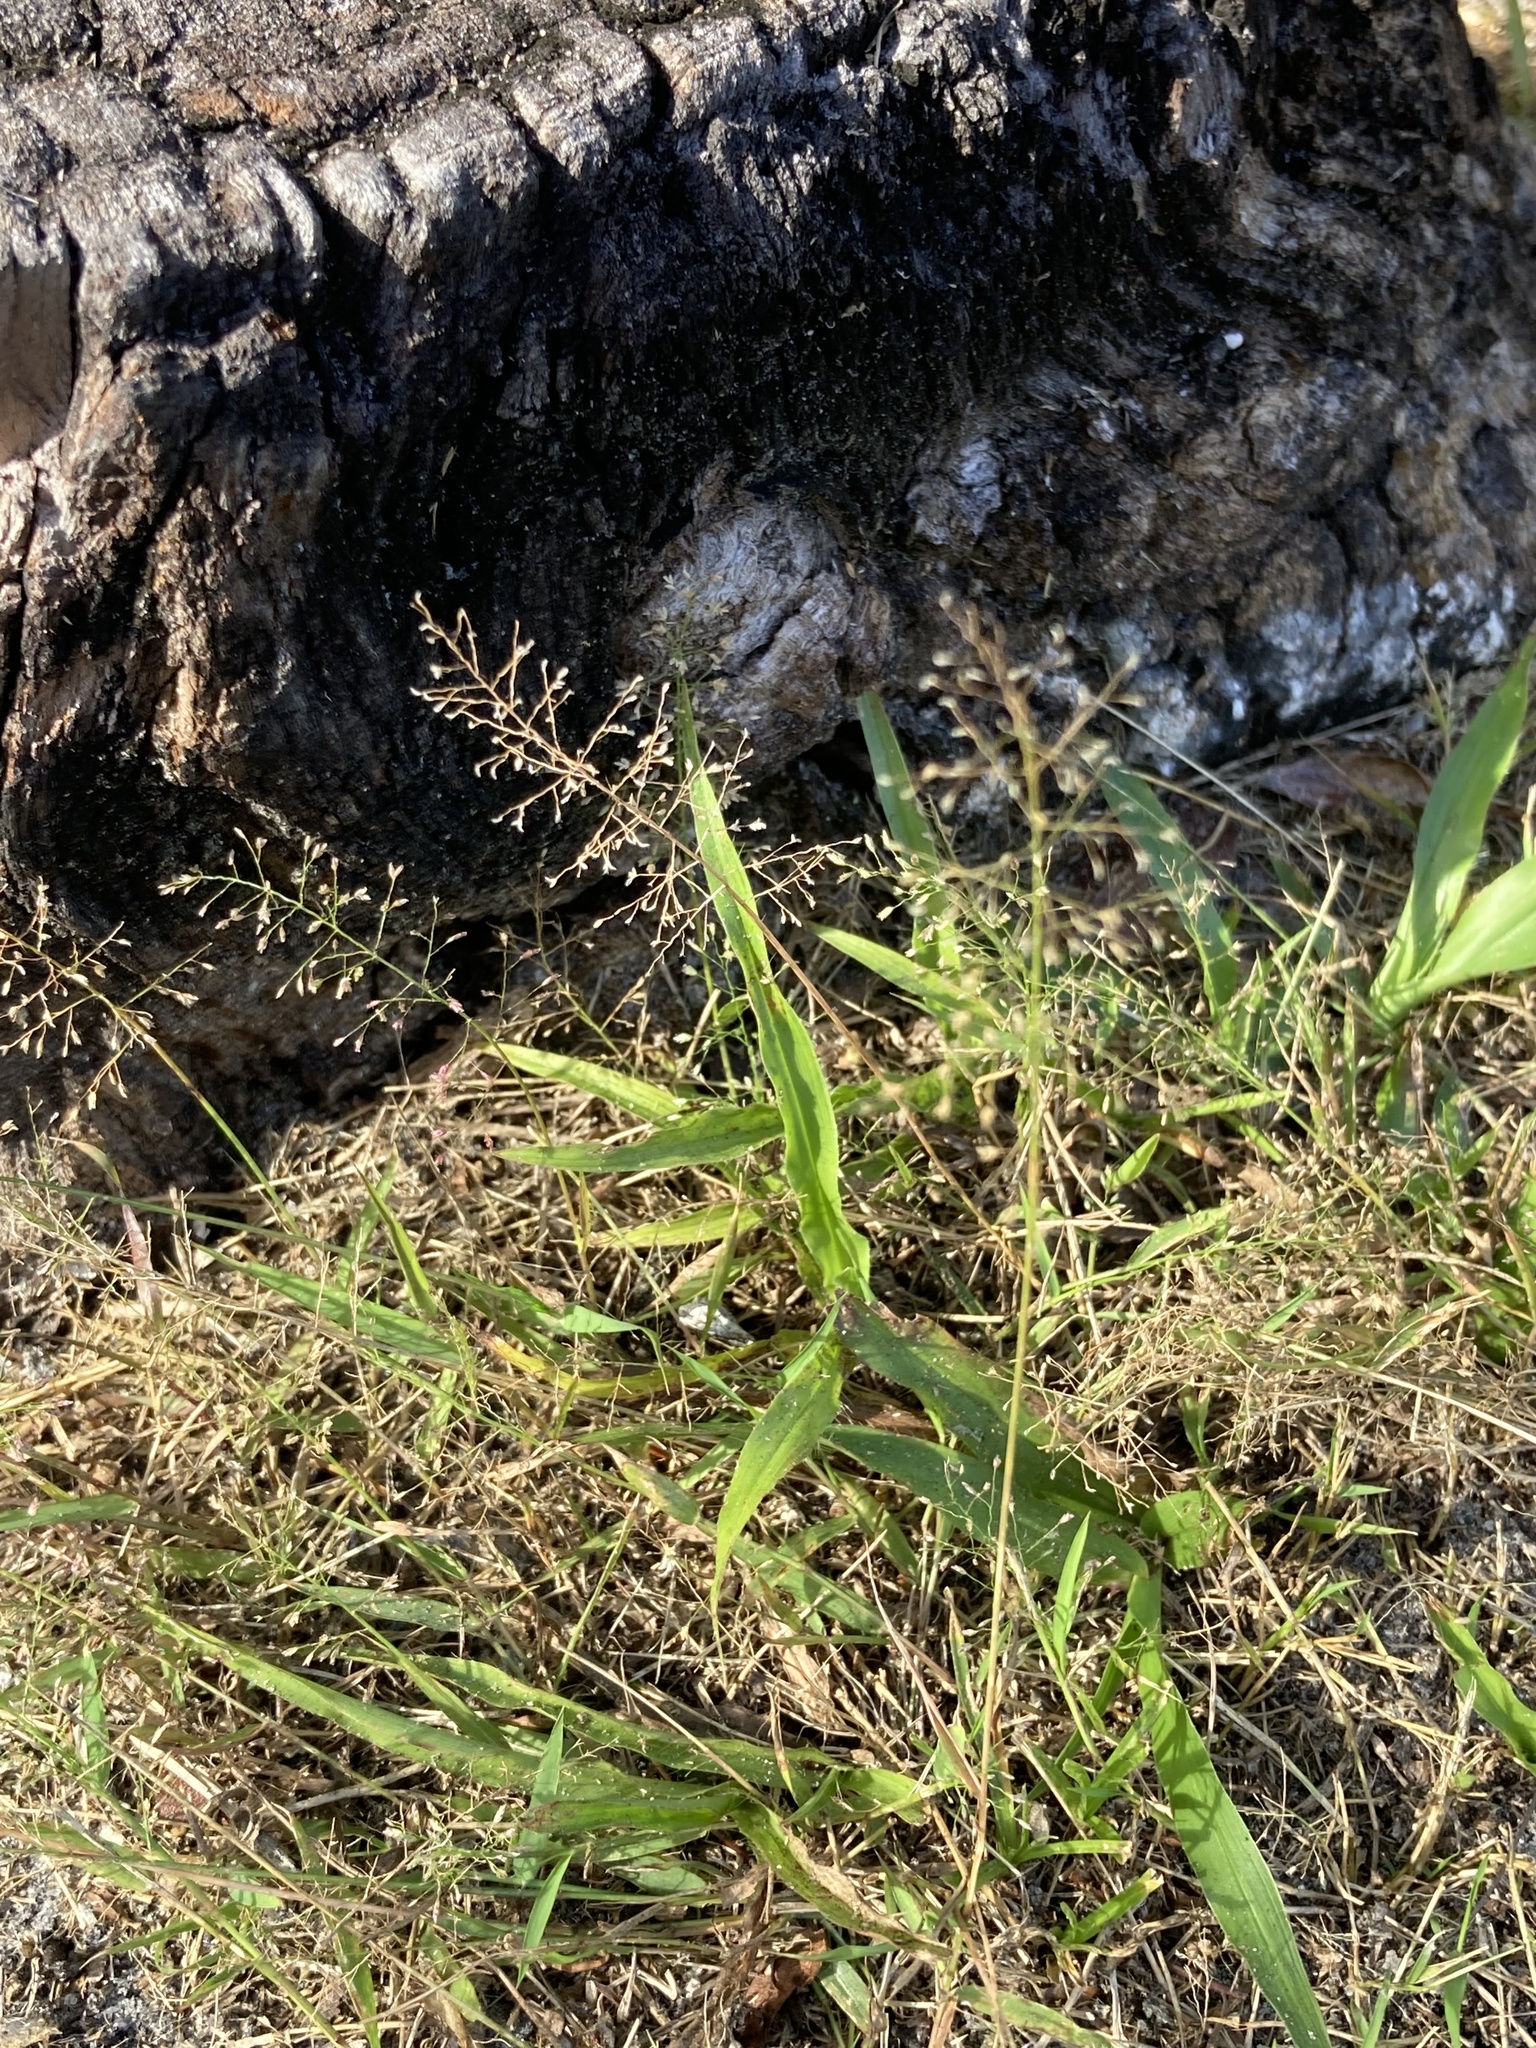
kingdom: Plantae
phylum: Tracheophyta
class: Liliopsida
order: Poales
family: Poaceae
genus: Eragrostis
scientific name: Eragrostis tenella
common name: Japanese lovegrass
